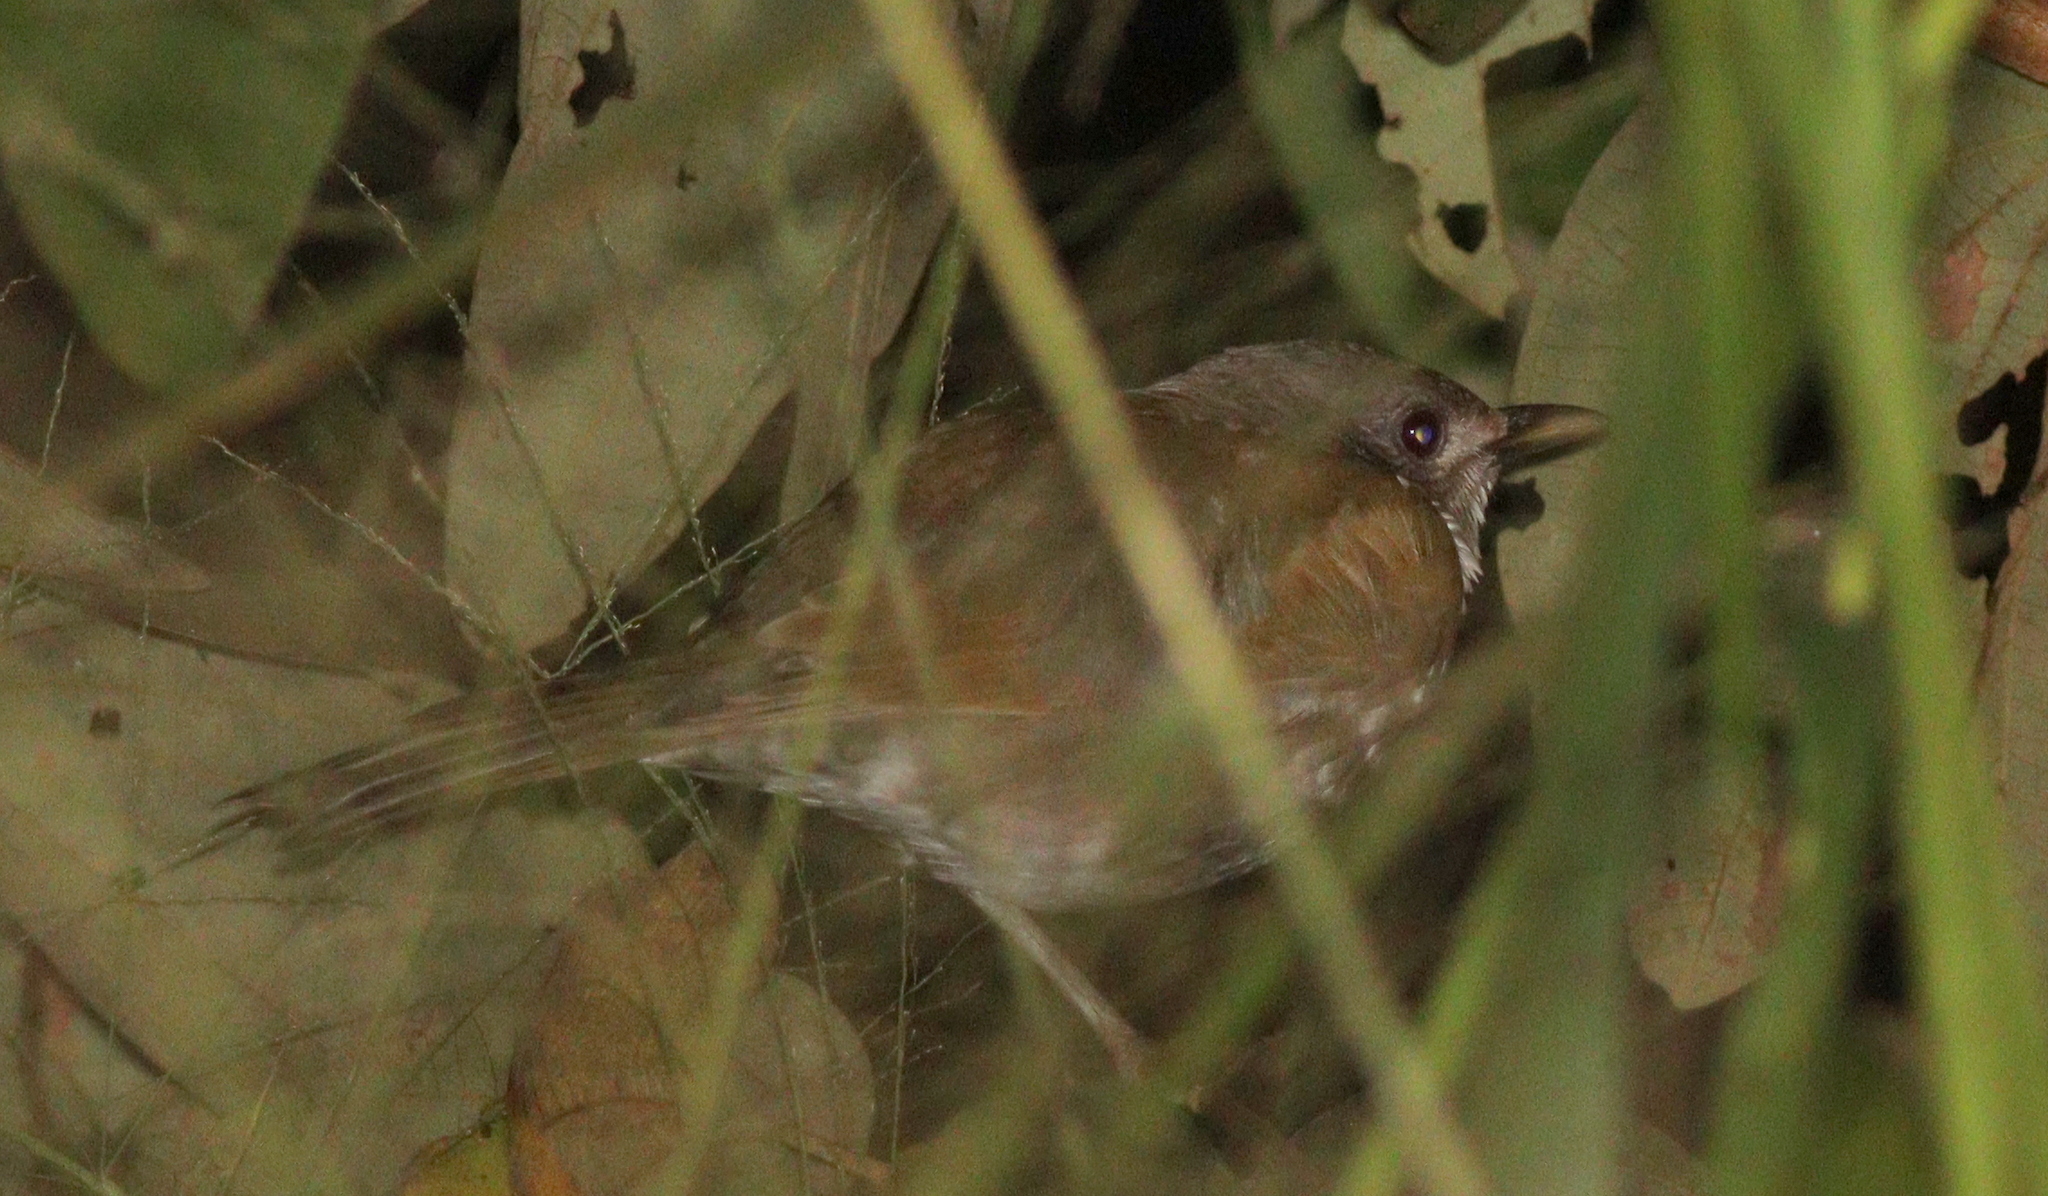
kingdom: Animalia
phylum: Chordata
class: Aves
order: Passeriformes
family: Turdidae
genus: Turdus
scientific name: Turdus leucomelas
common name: Pale-breasted thrush
